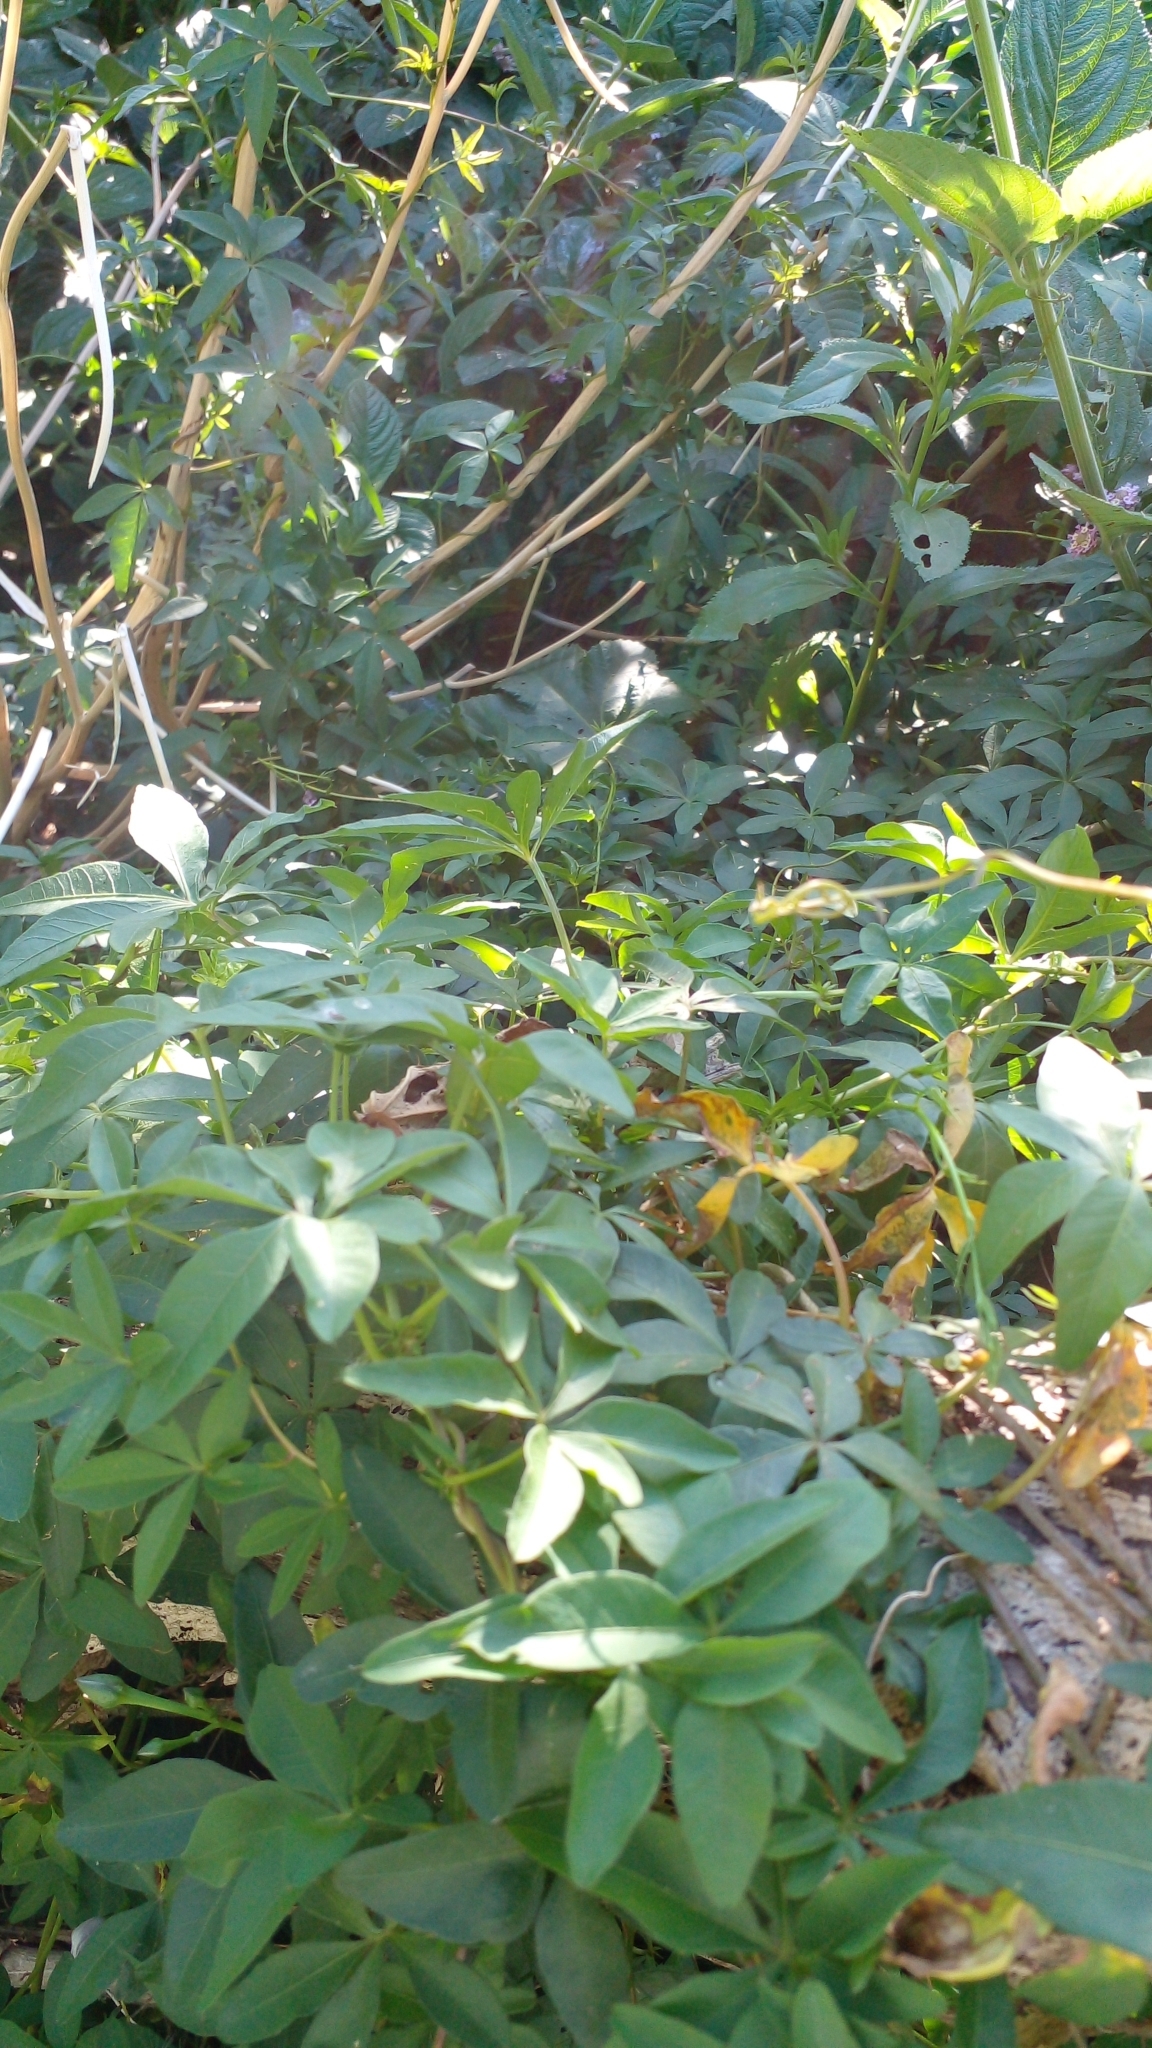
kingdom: Plantae
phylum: Tracheophyta
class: Magnoliopsida
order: Solanales
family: Convolvulaceae
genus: Ipomoea
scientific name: Ipomoea cairica
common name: Mile a minute vine
